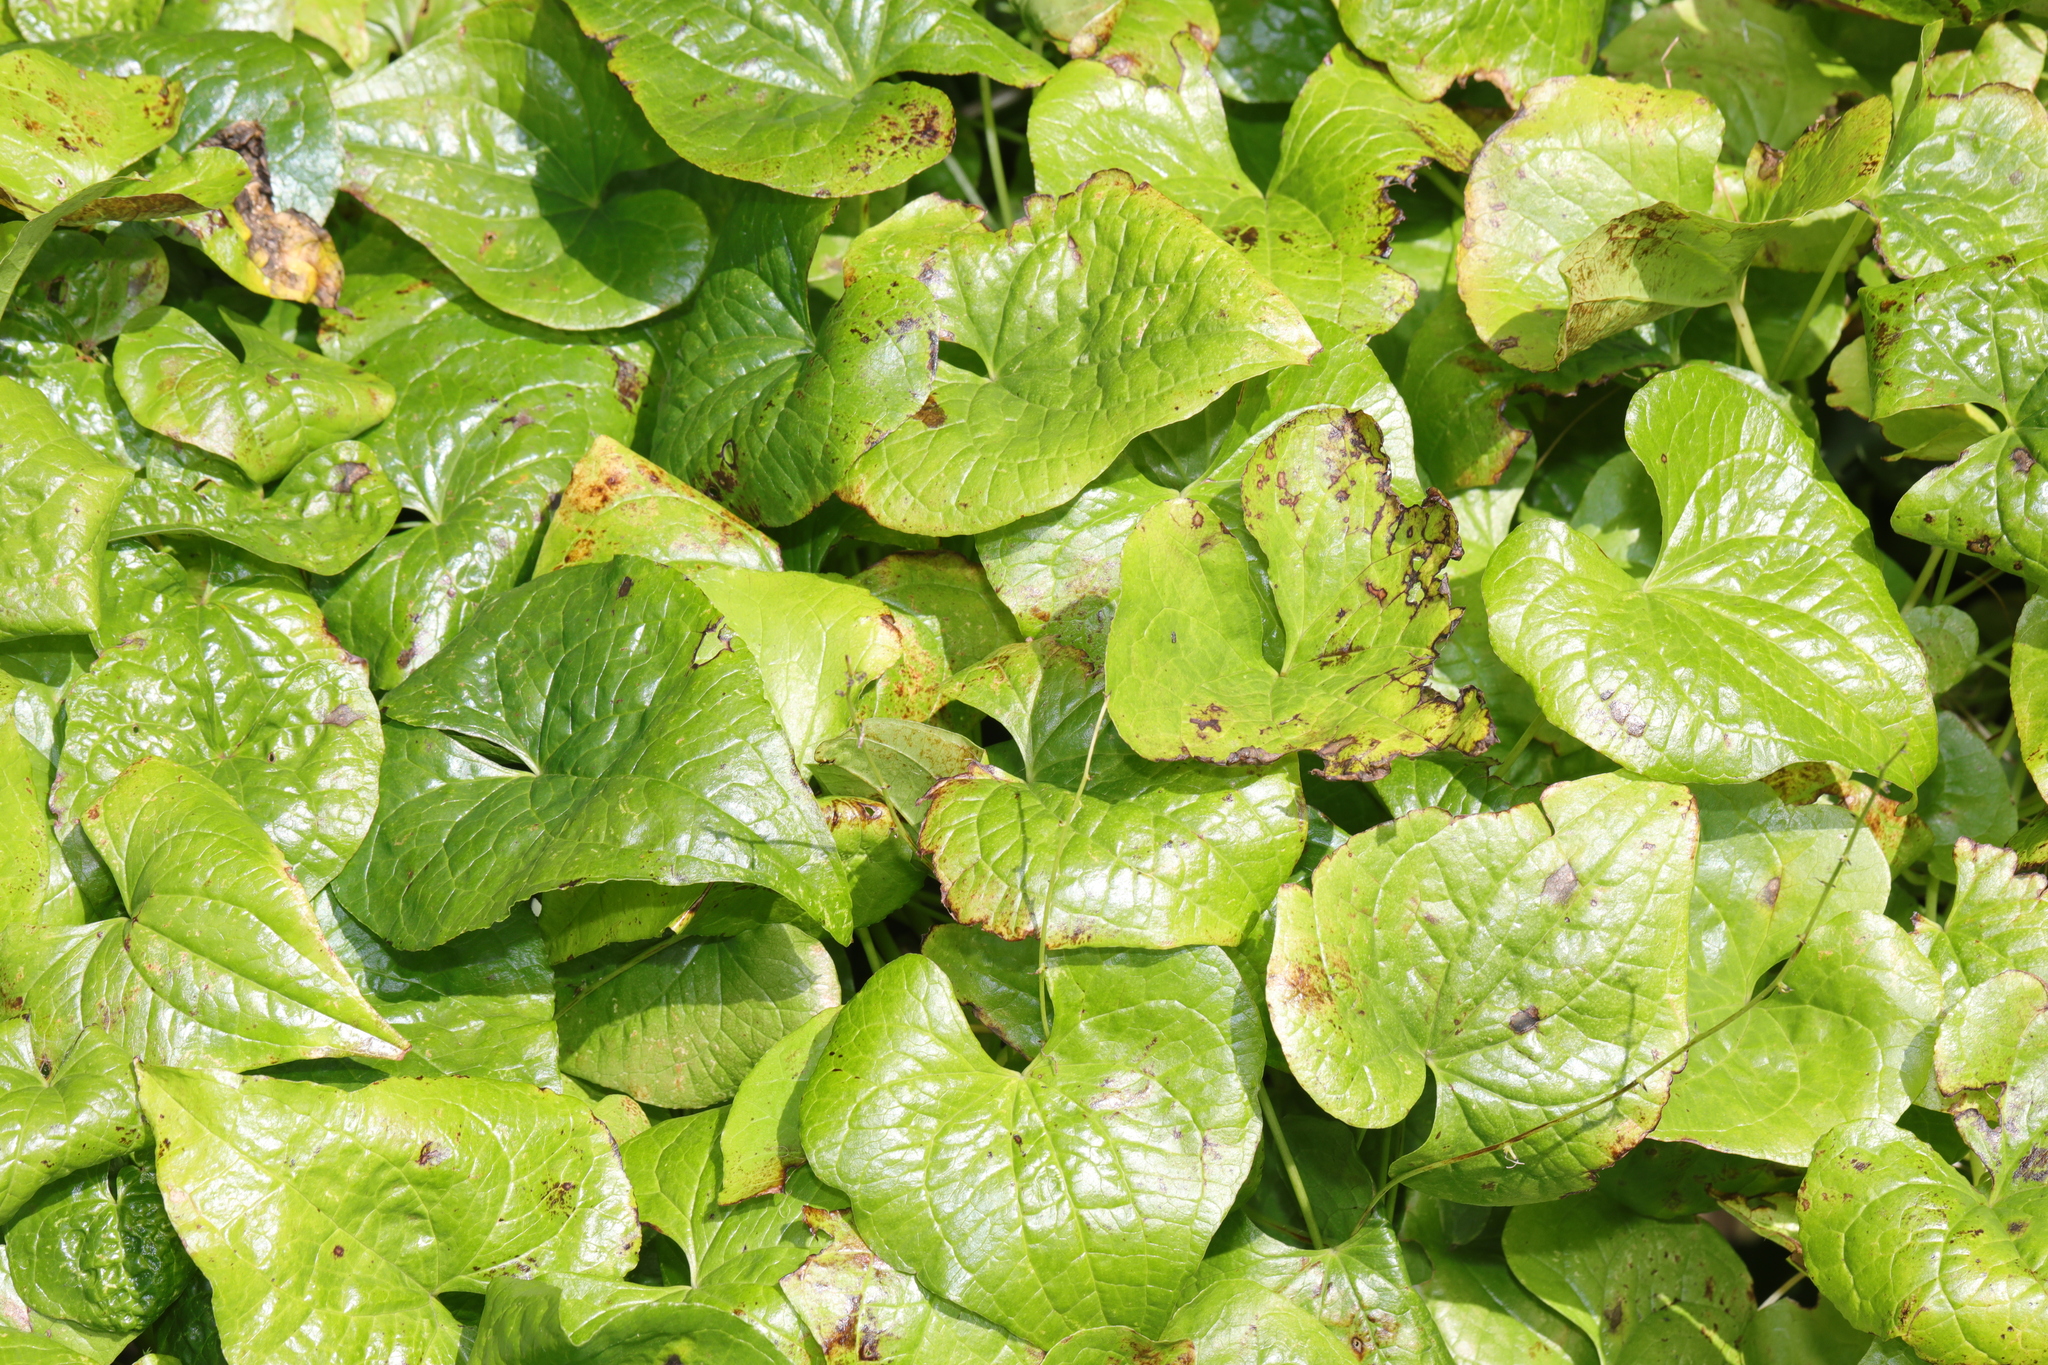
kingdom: Plantae
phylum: Tracheophyta
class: Liliopsida
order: Dioscoreales
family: Dioscoreaceae
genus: Dioscorea
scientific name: Dioscorea communis
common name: Black-bindweed
